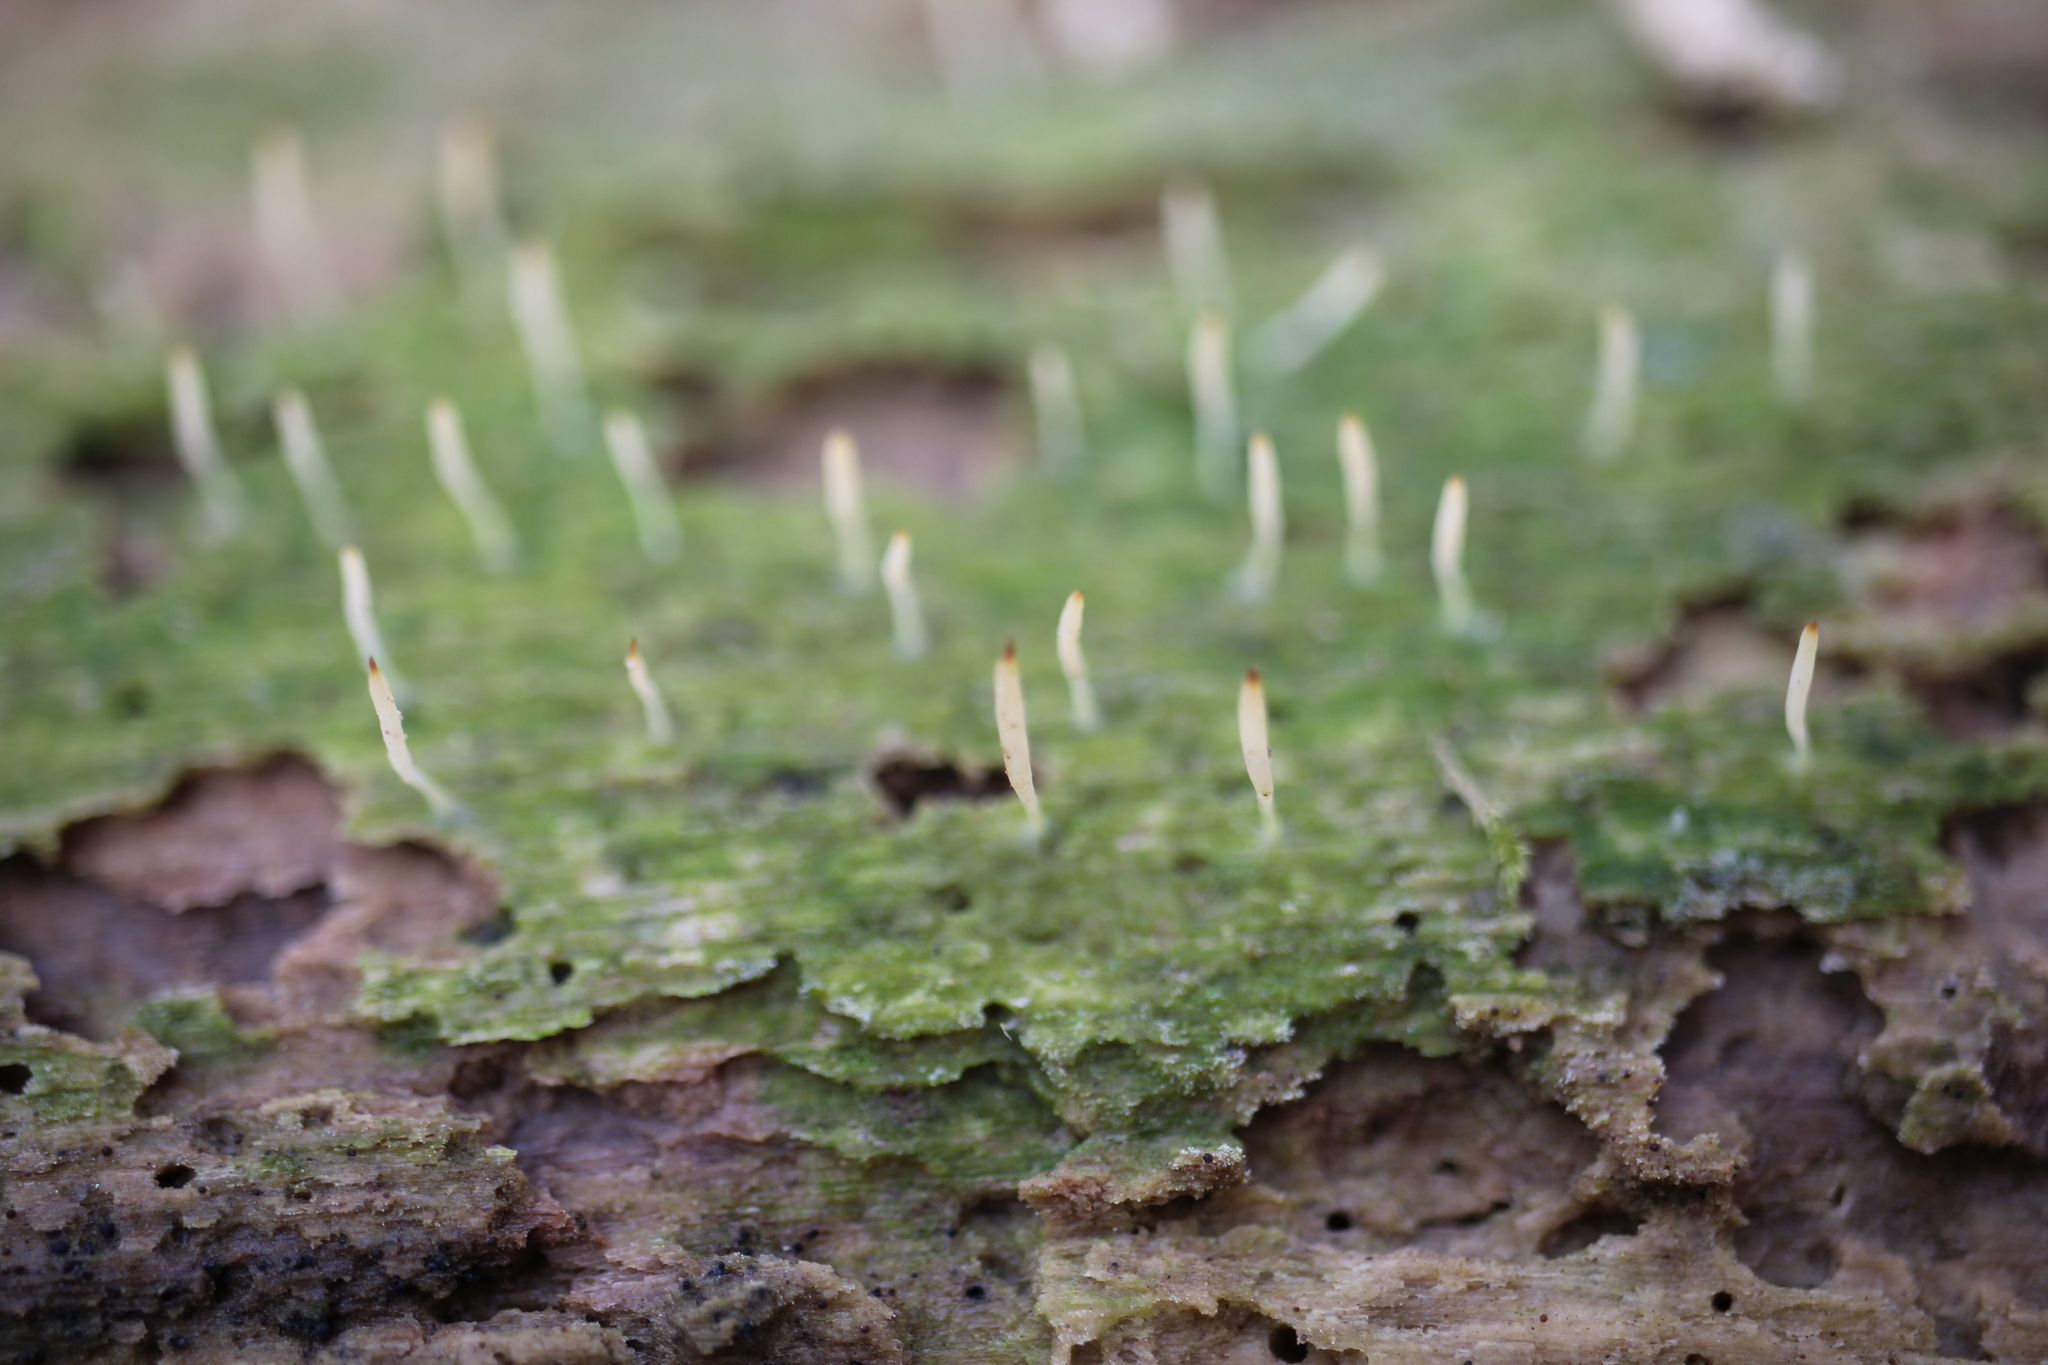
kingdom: Fungi
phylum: Basidiomycota
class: Agaricomycetes
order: Cantharellales
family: Hydnaceae
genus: Multiclavula
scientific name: Multiclavula mucida
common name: White green-algae coral
